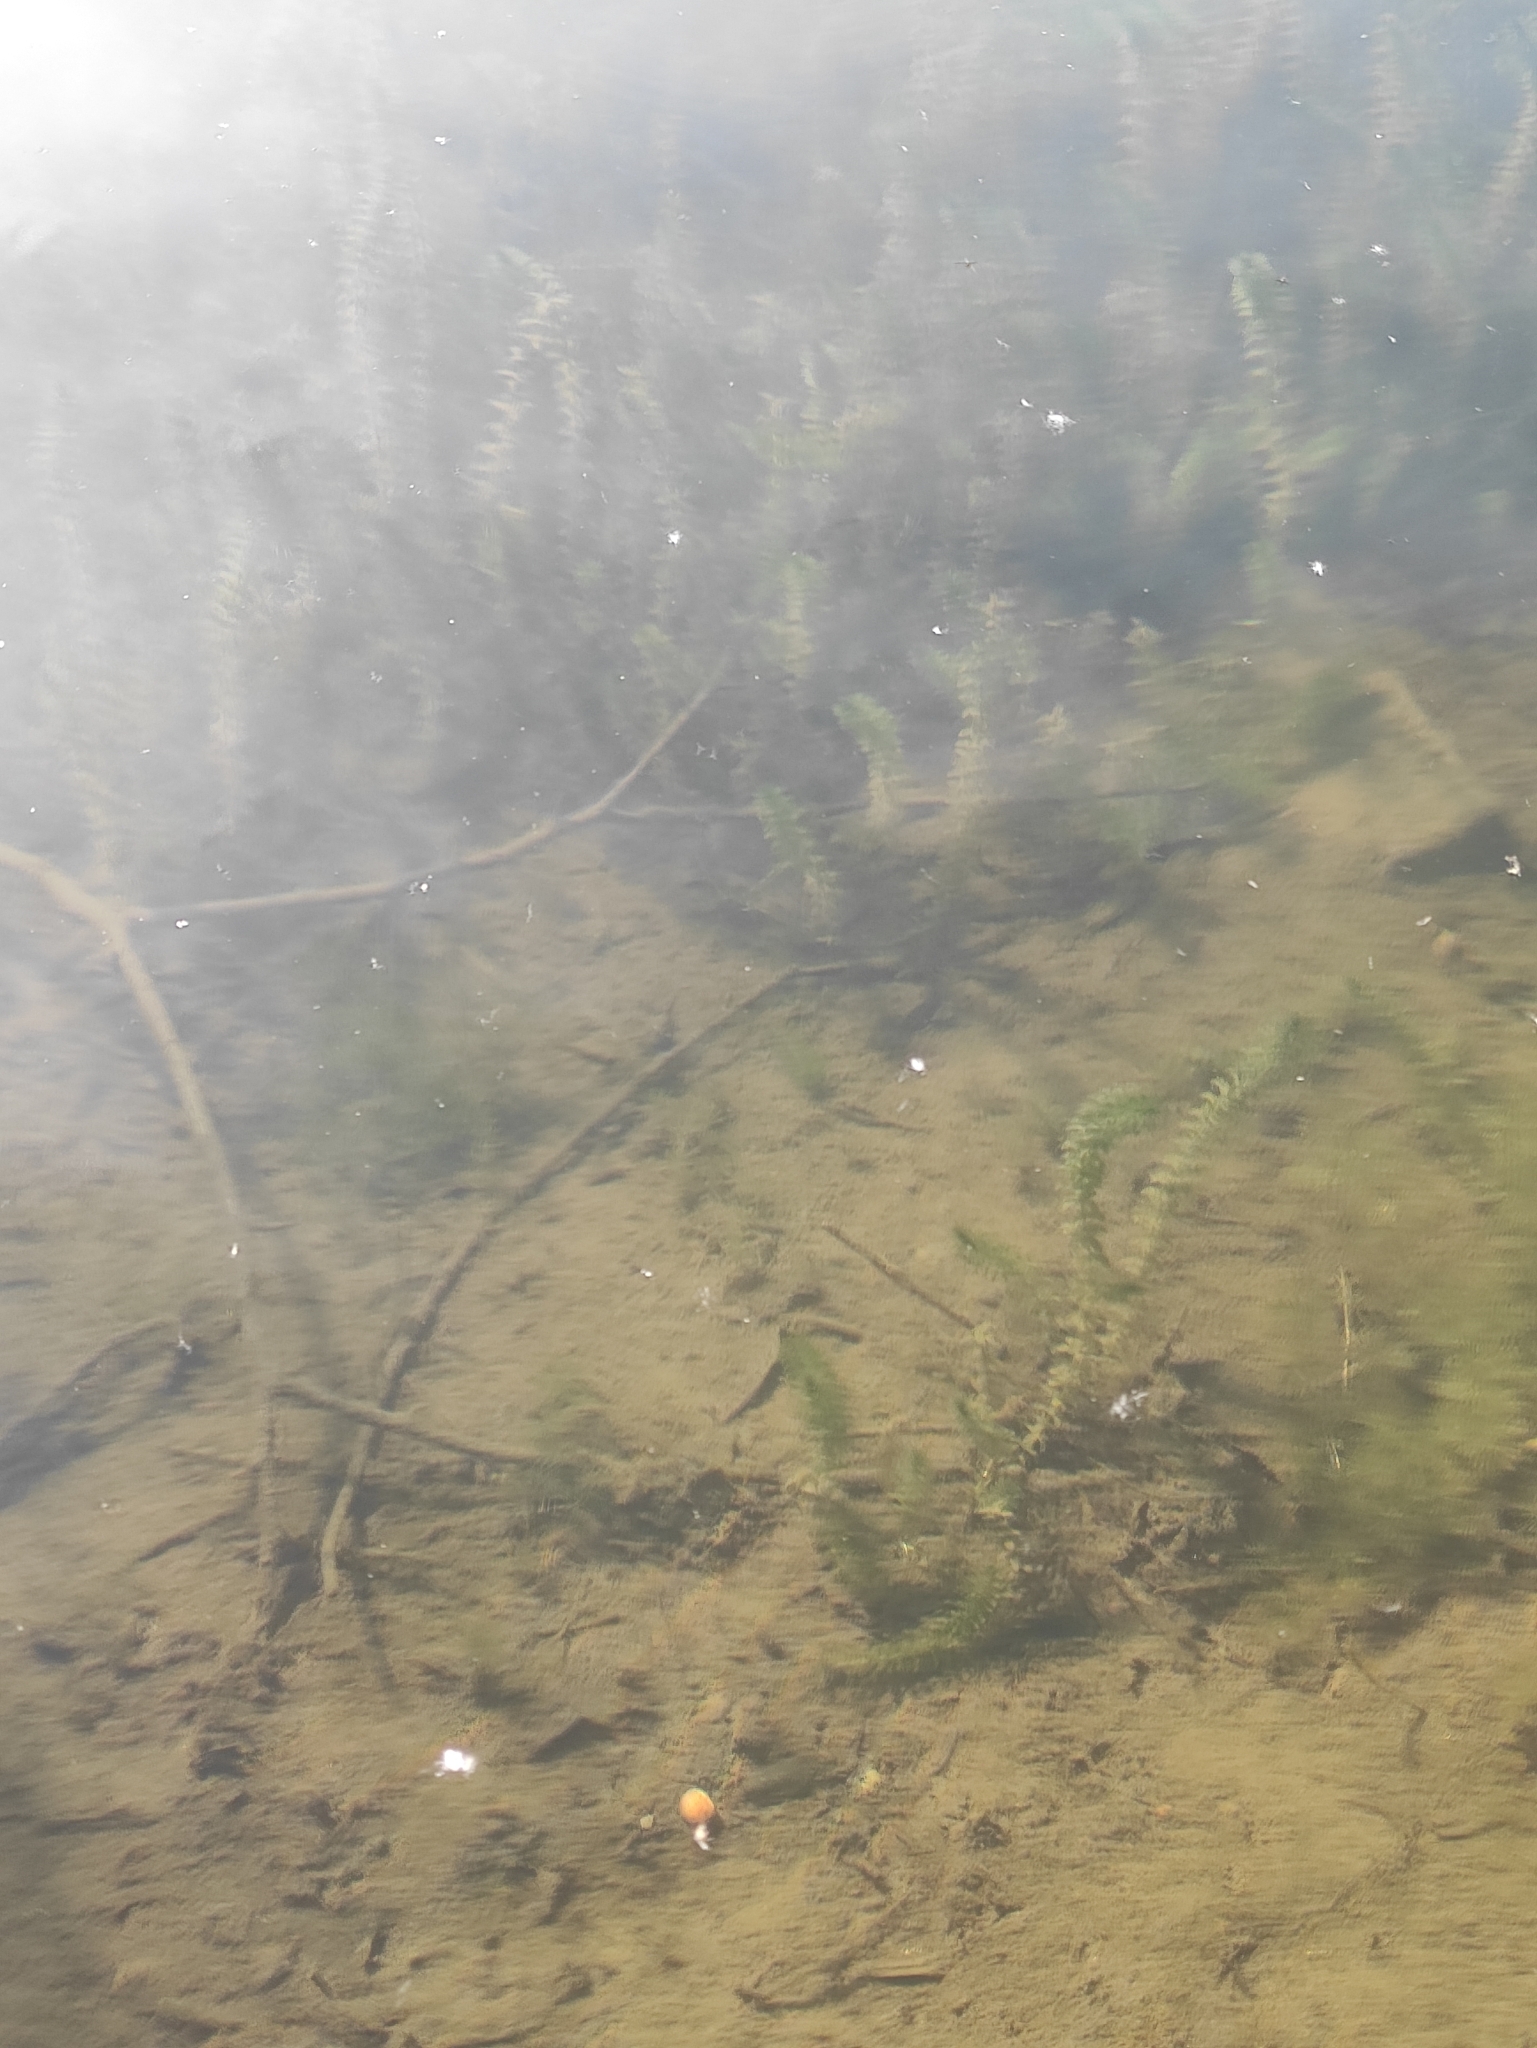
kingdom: Plantae
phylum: Tracheophyta
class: Liliopsida
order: Alismatales
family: Hydrocharitaceae
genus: Elodea
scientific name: Elodea canadensis
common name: Canadian waterweed
